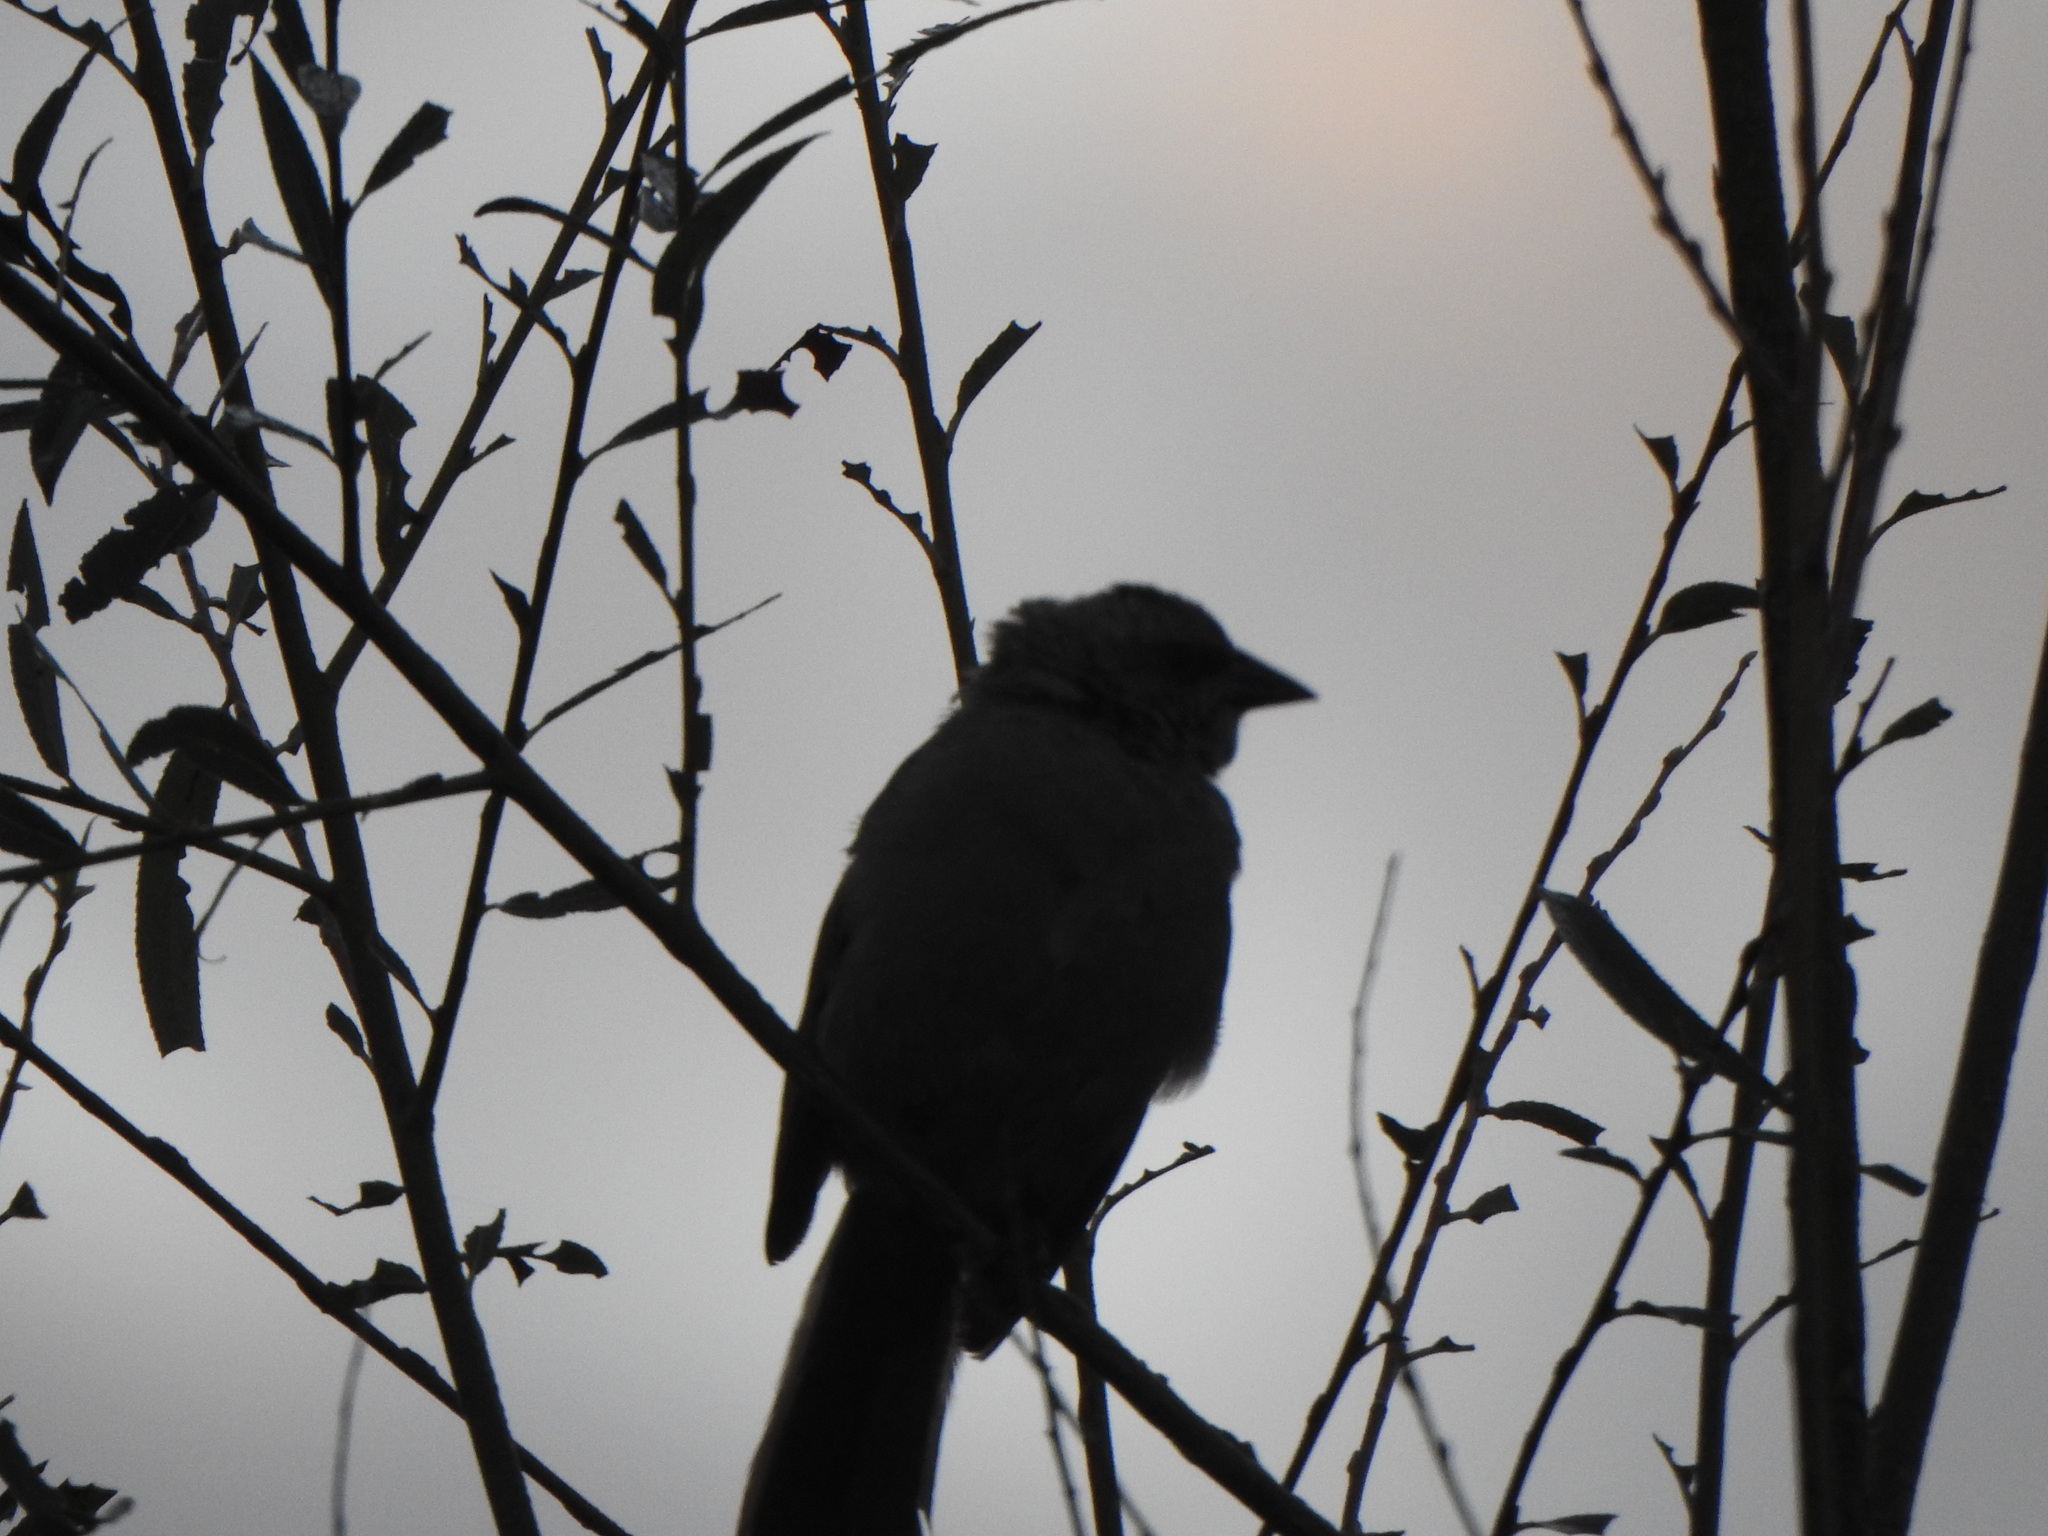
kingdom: Animalia
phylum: Chordata
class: Aves
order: Passeriformes
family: Icteridae
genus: Agelaioides
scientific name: Agelaioides badius
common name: Baywing
